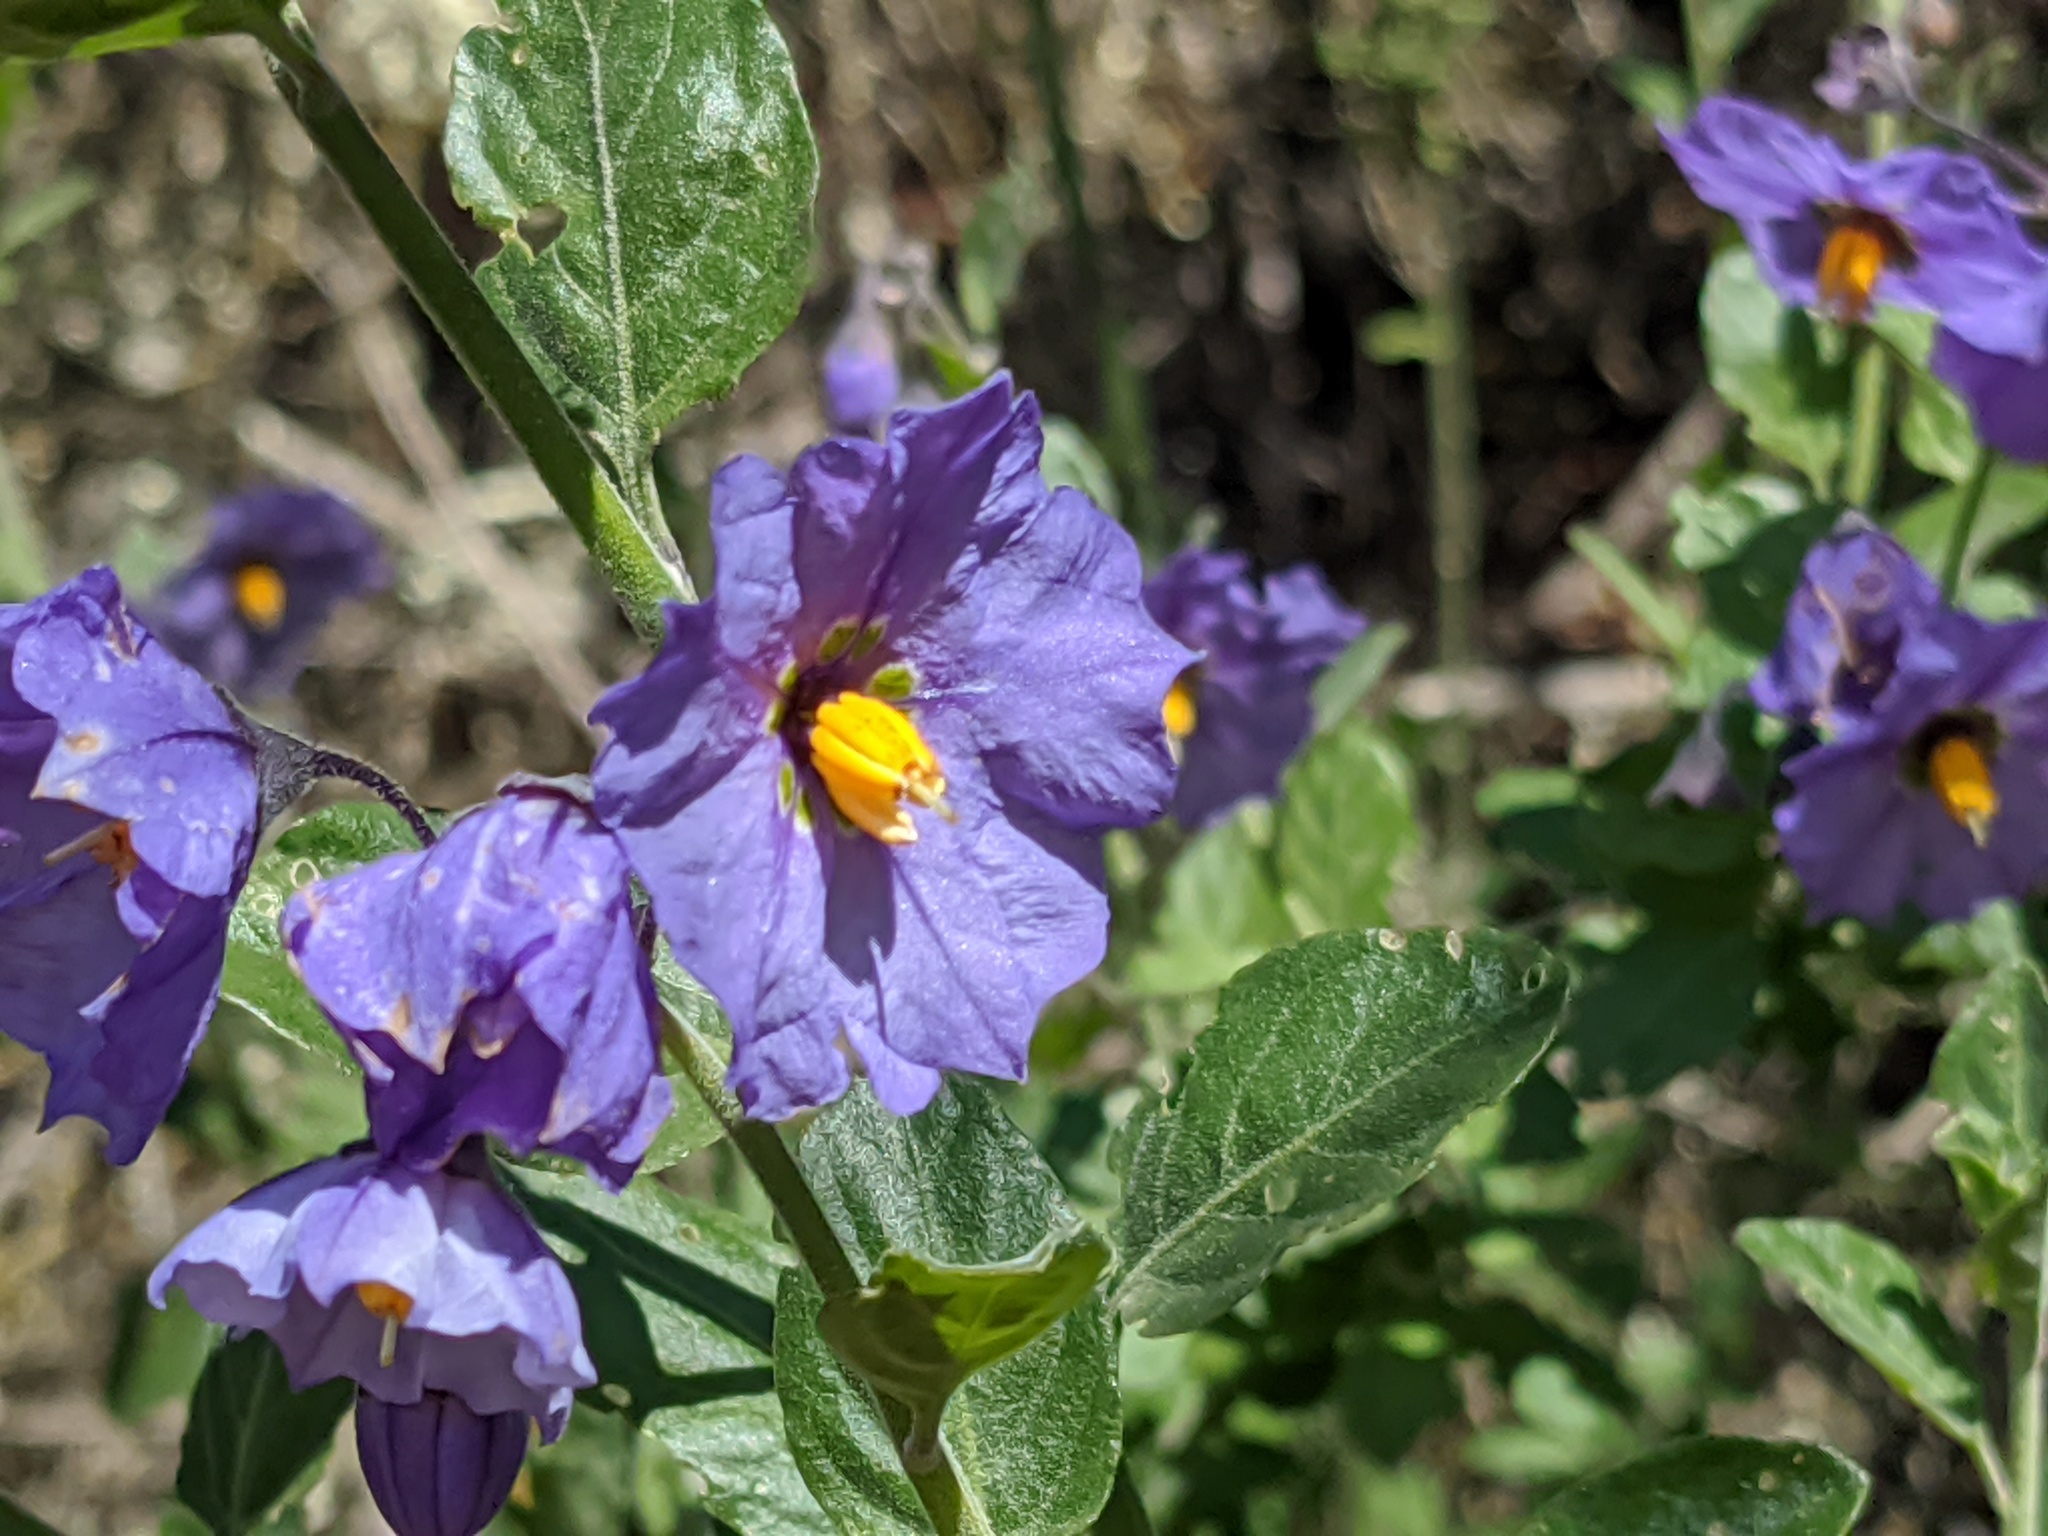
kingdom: Plantae
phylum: Tracheophyta
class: Magnoliopsida
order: Solanales
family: Solanaceae
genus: Solanum
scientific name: Solanum umbelliferum
